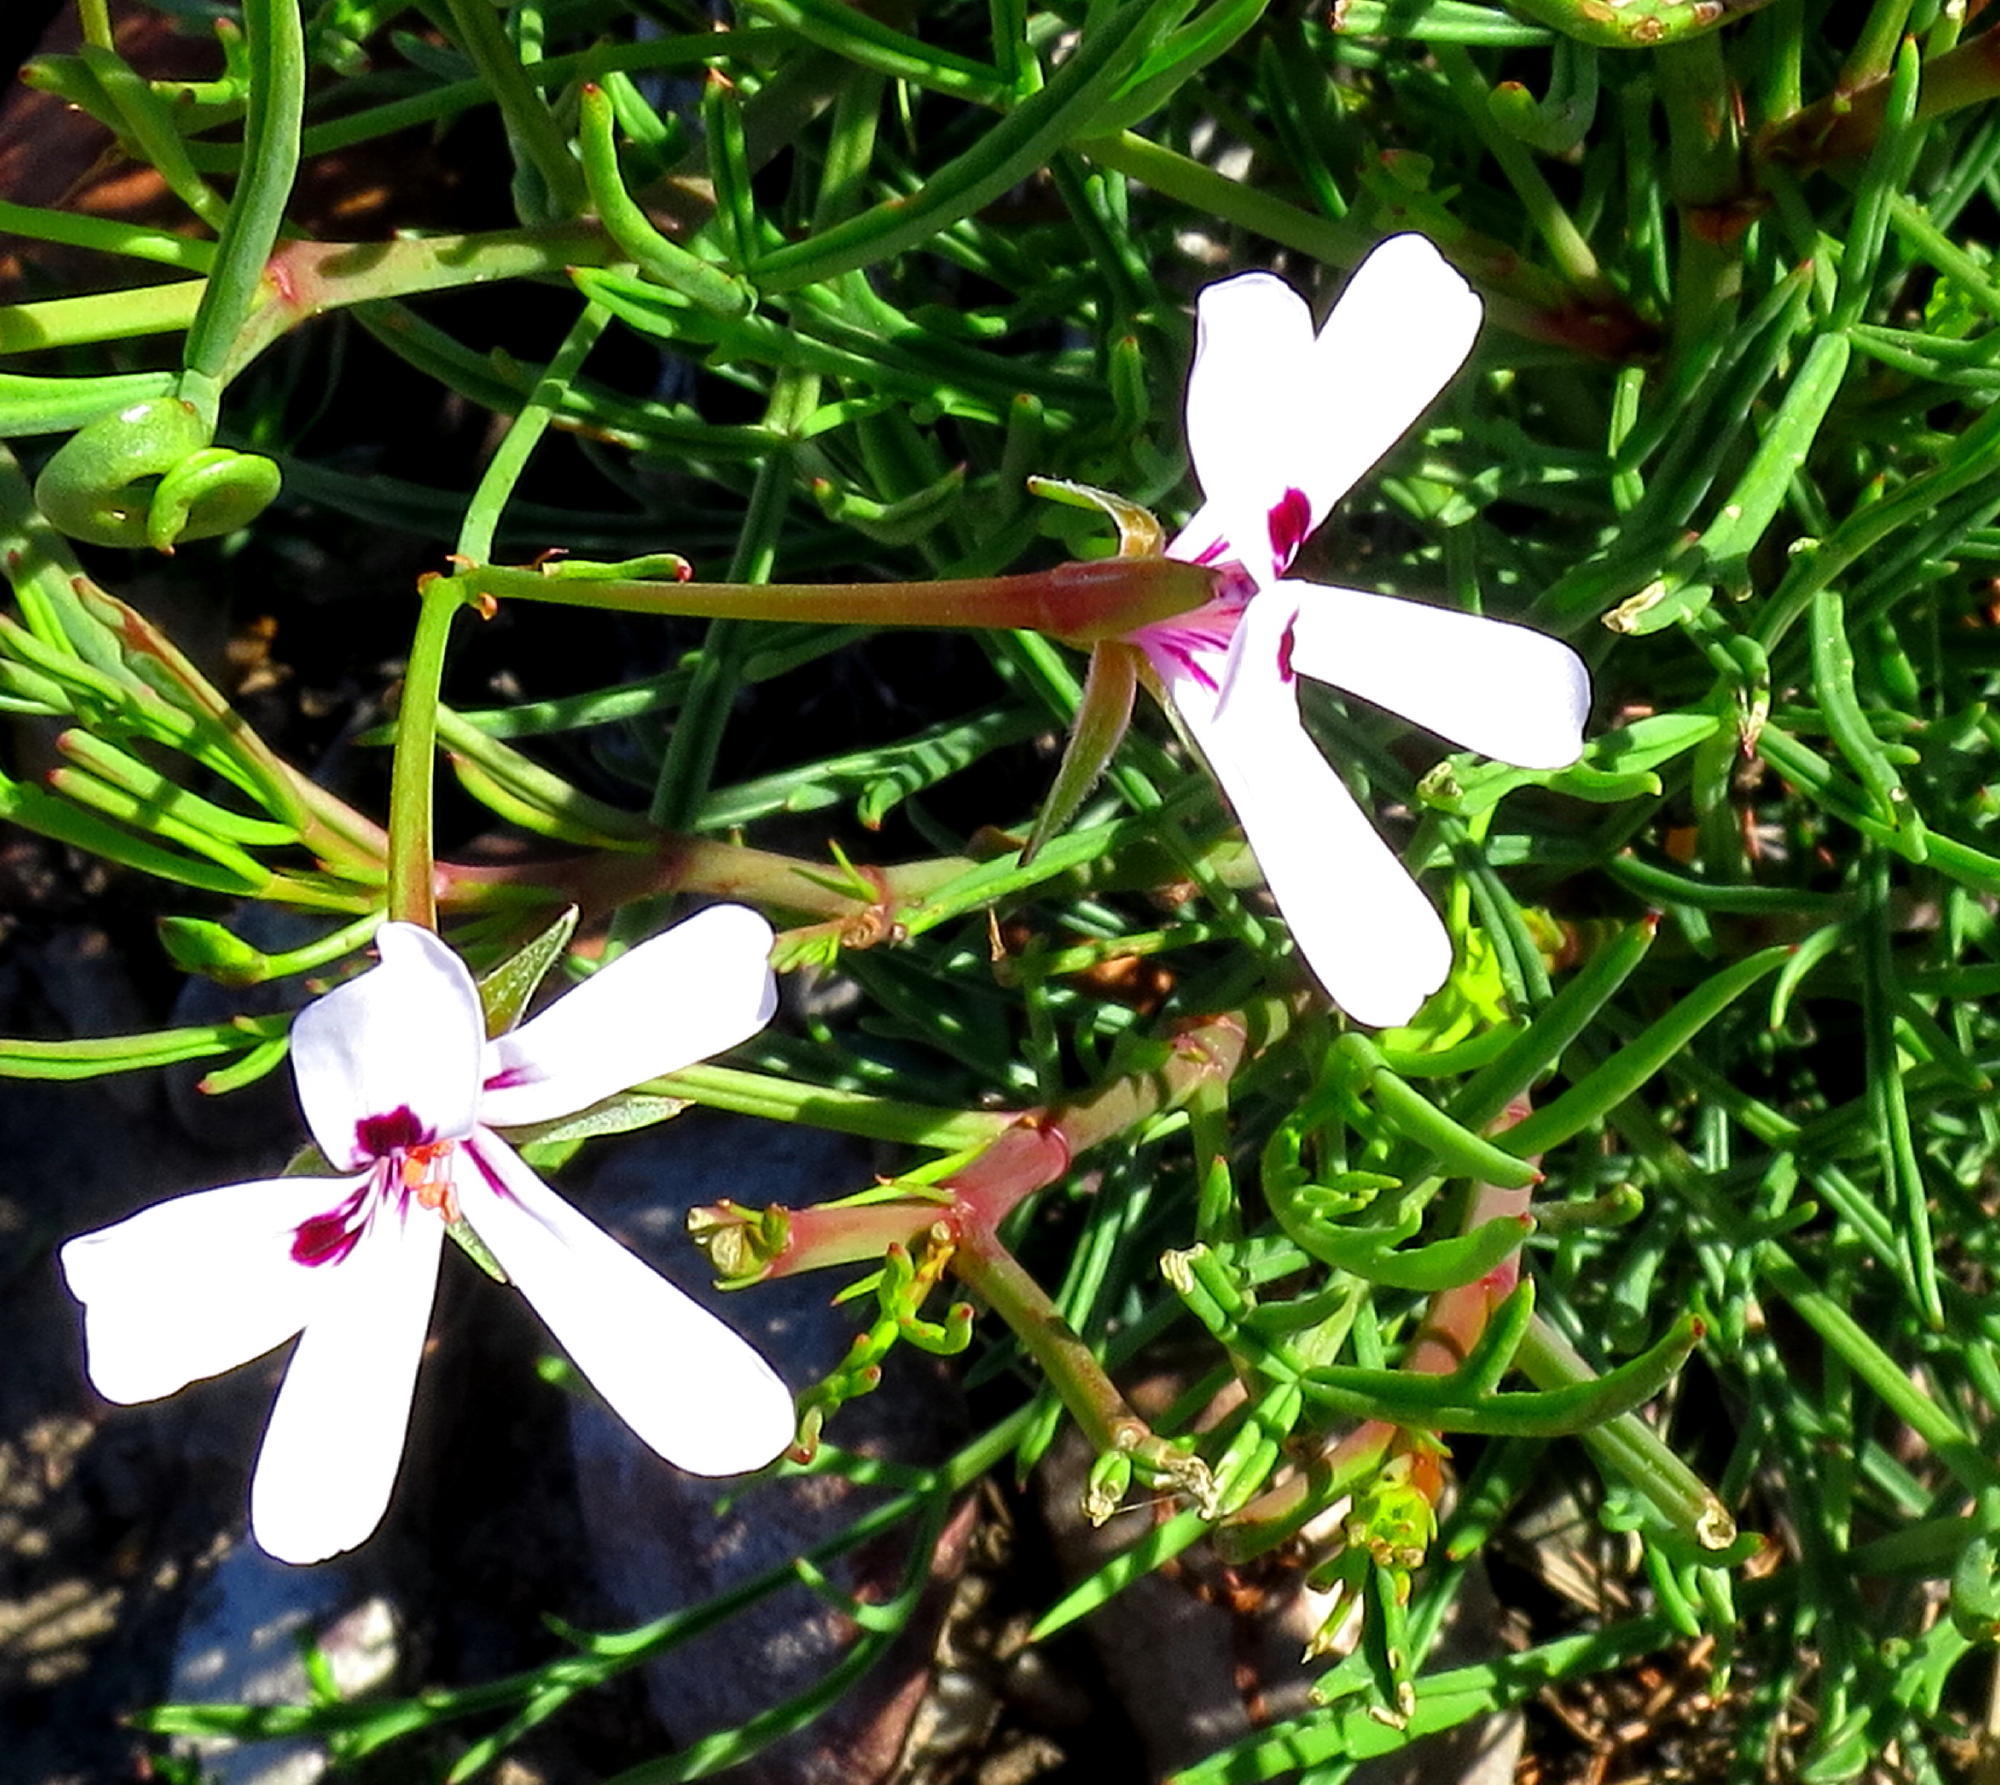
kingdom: Plantae
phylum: Tracheophyta
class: Magnoliopsida
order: Geraniales
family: Geraniaceae
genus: Pelargonium
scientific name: Pelargonium laevigatum
